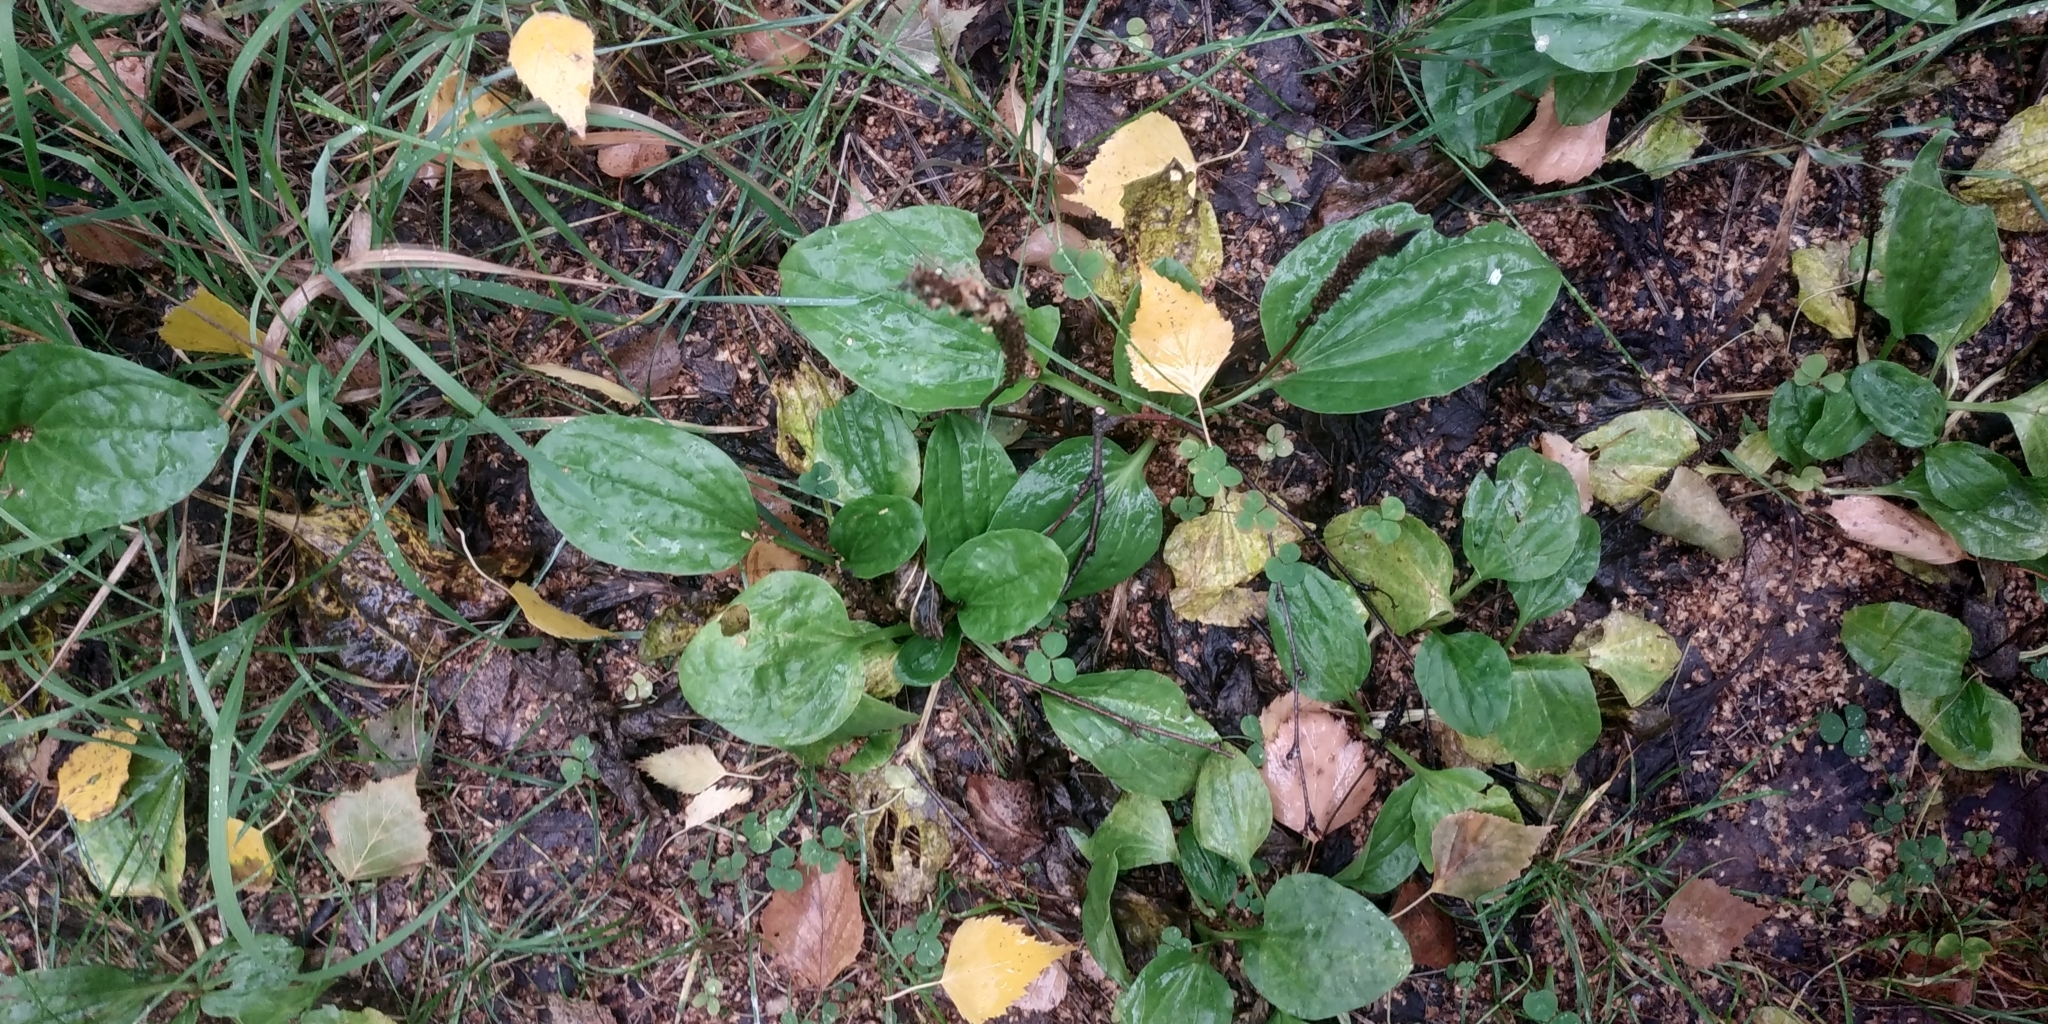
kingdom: Plantae
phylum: Tracheophyta
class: Magnoliopsida
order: Lamiales
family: Plantaginaceae
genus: Plantago
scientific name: Plantago major
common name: Common plantain
